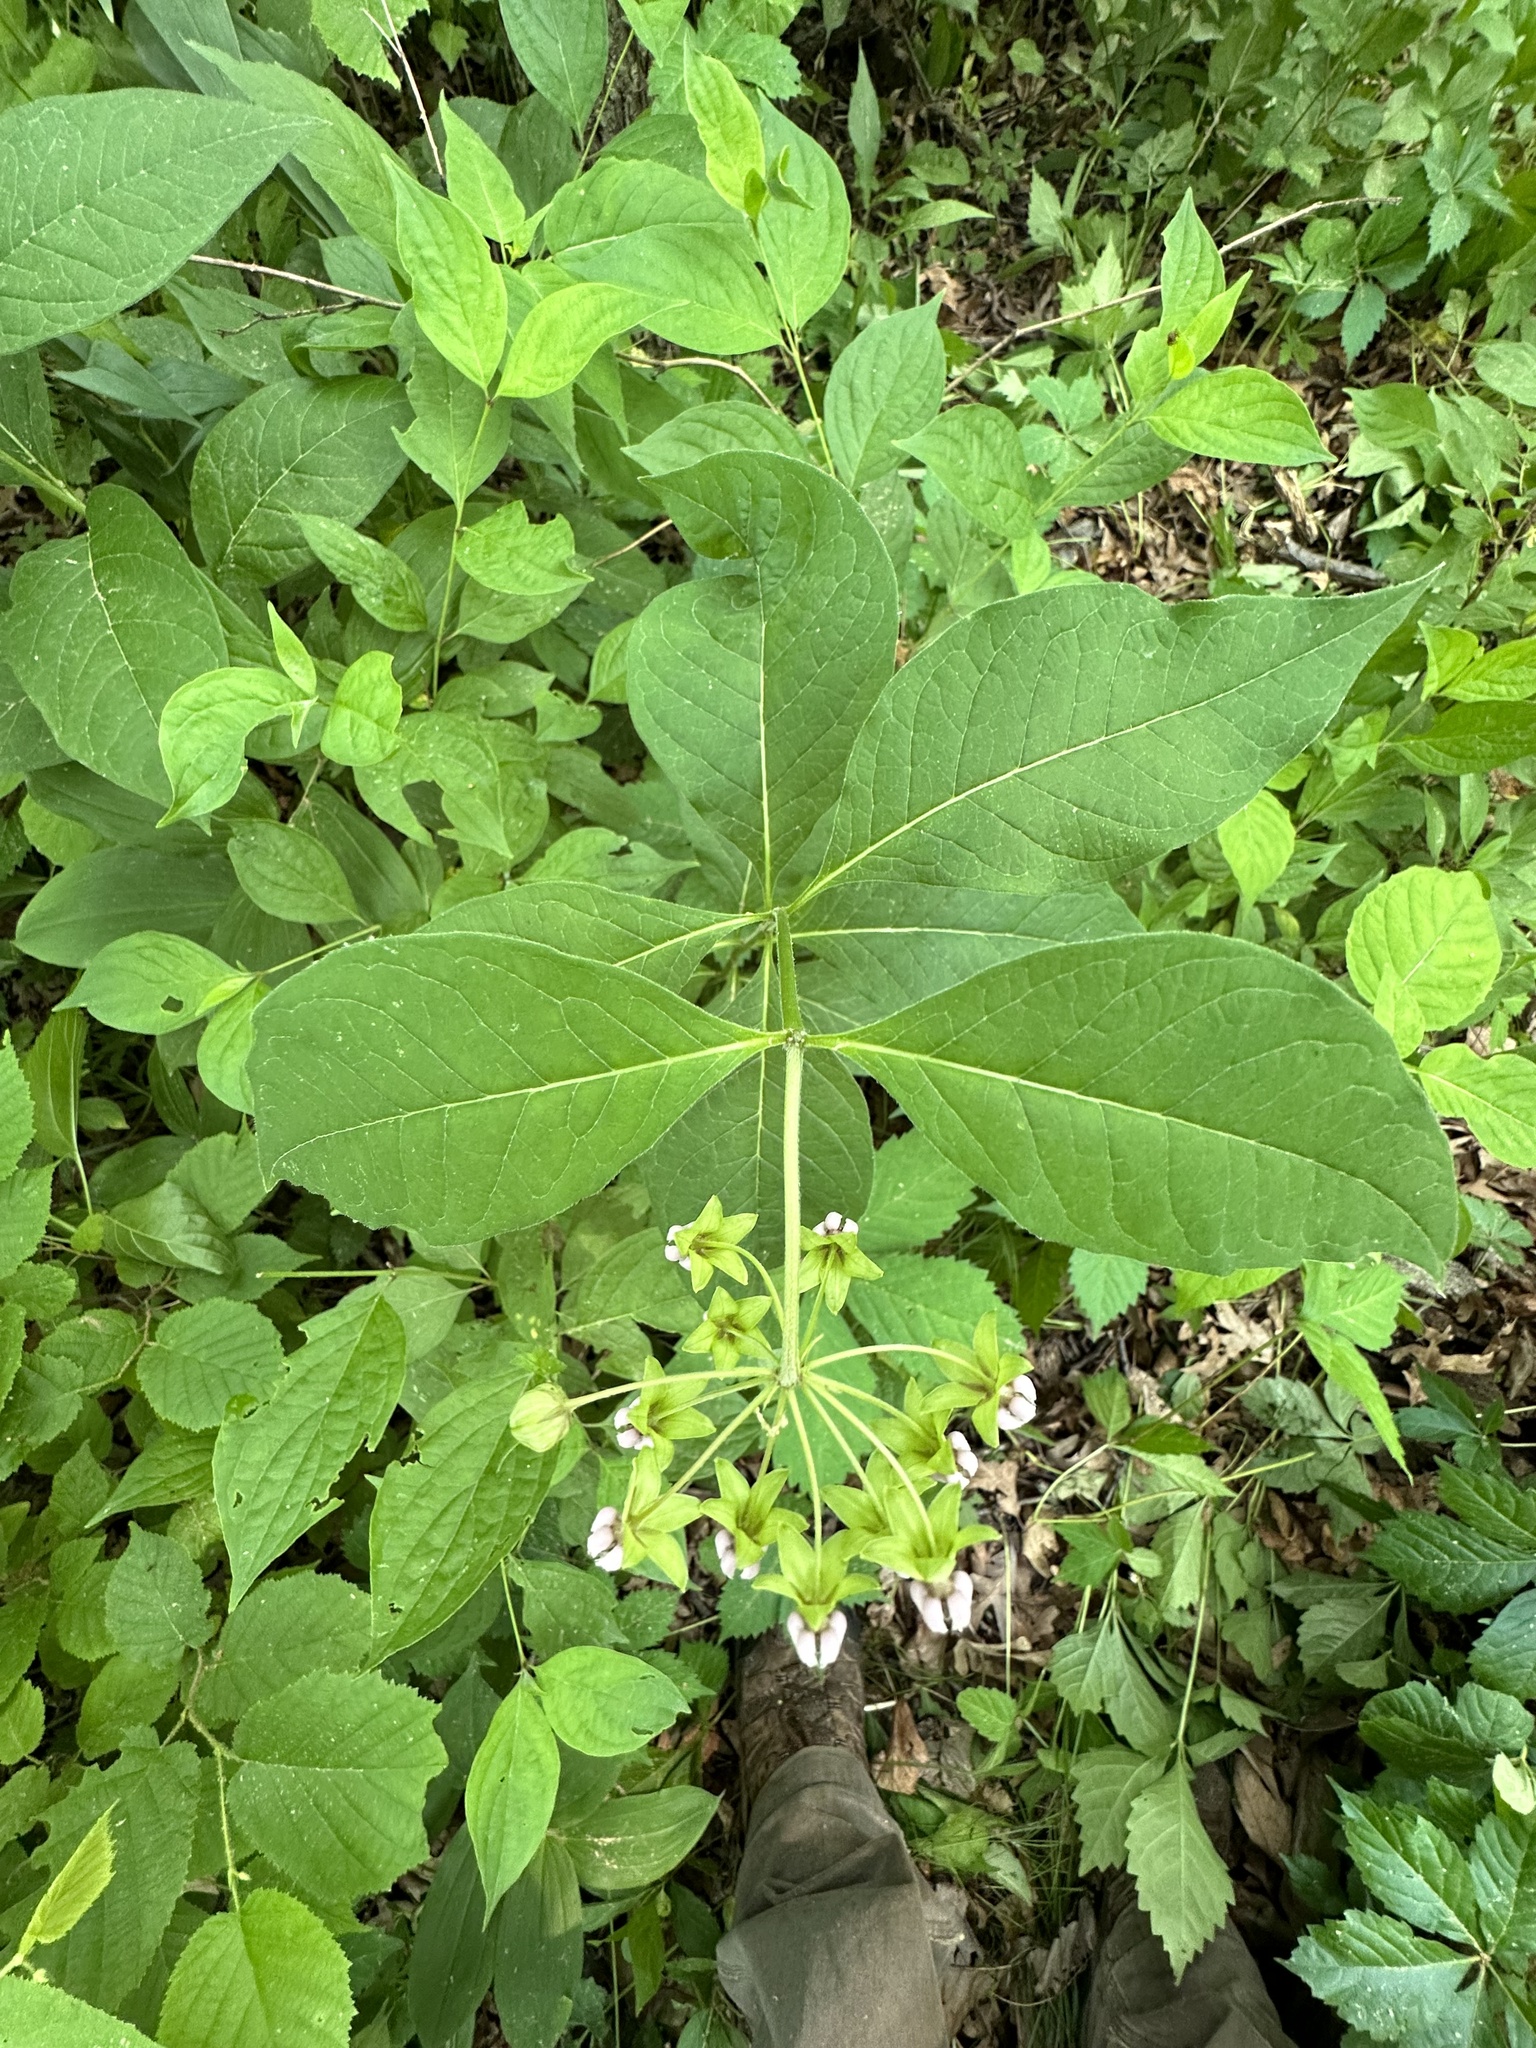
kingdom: Plantae
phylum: Tracheophyta
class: Magnoliopsida
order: Gentianales
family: Apocynaceae
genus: Asclepias
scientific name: Asclepias exaltata
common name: Poke milkweed
